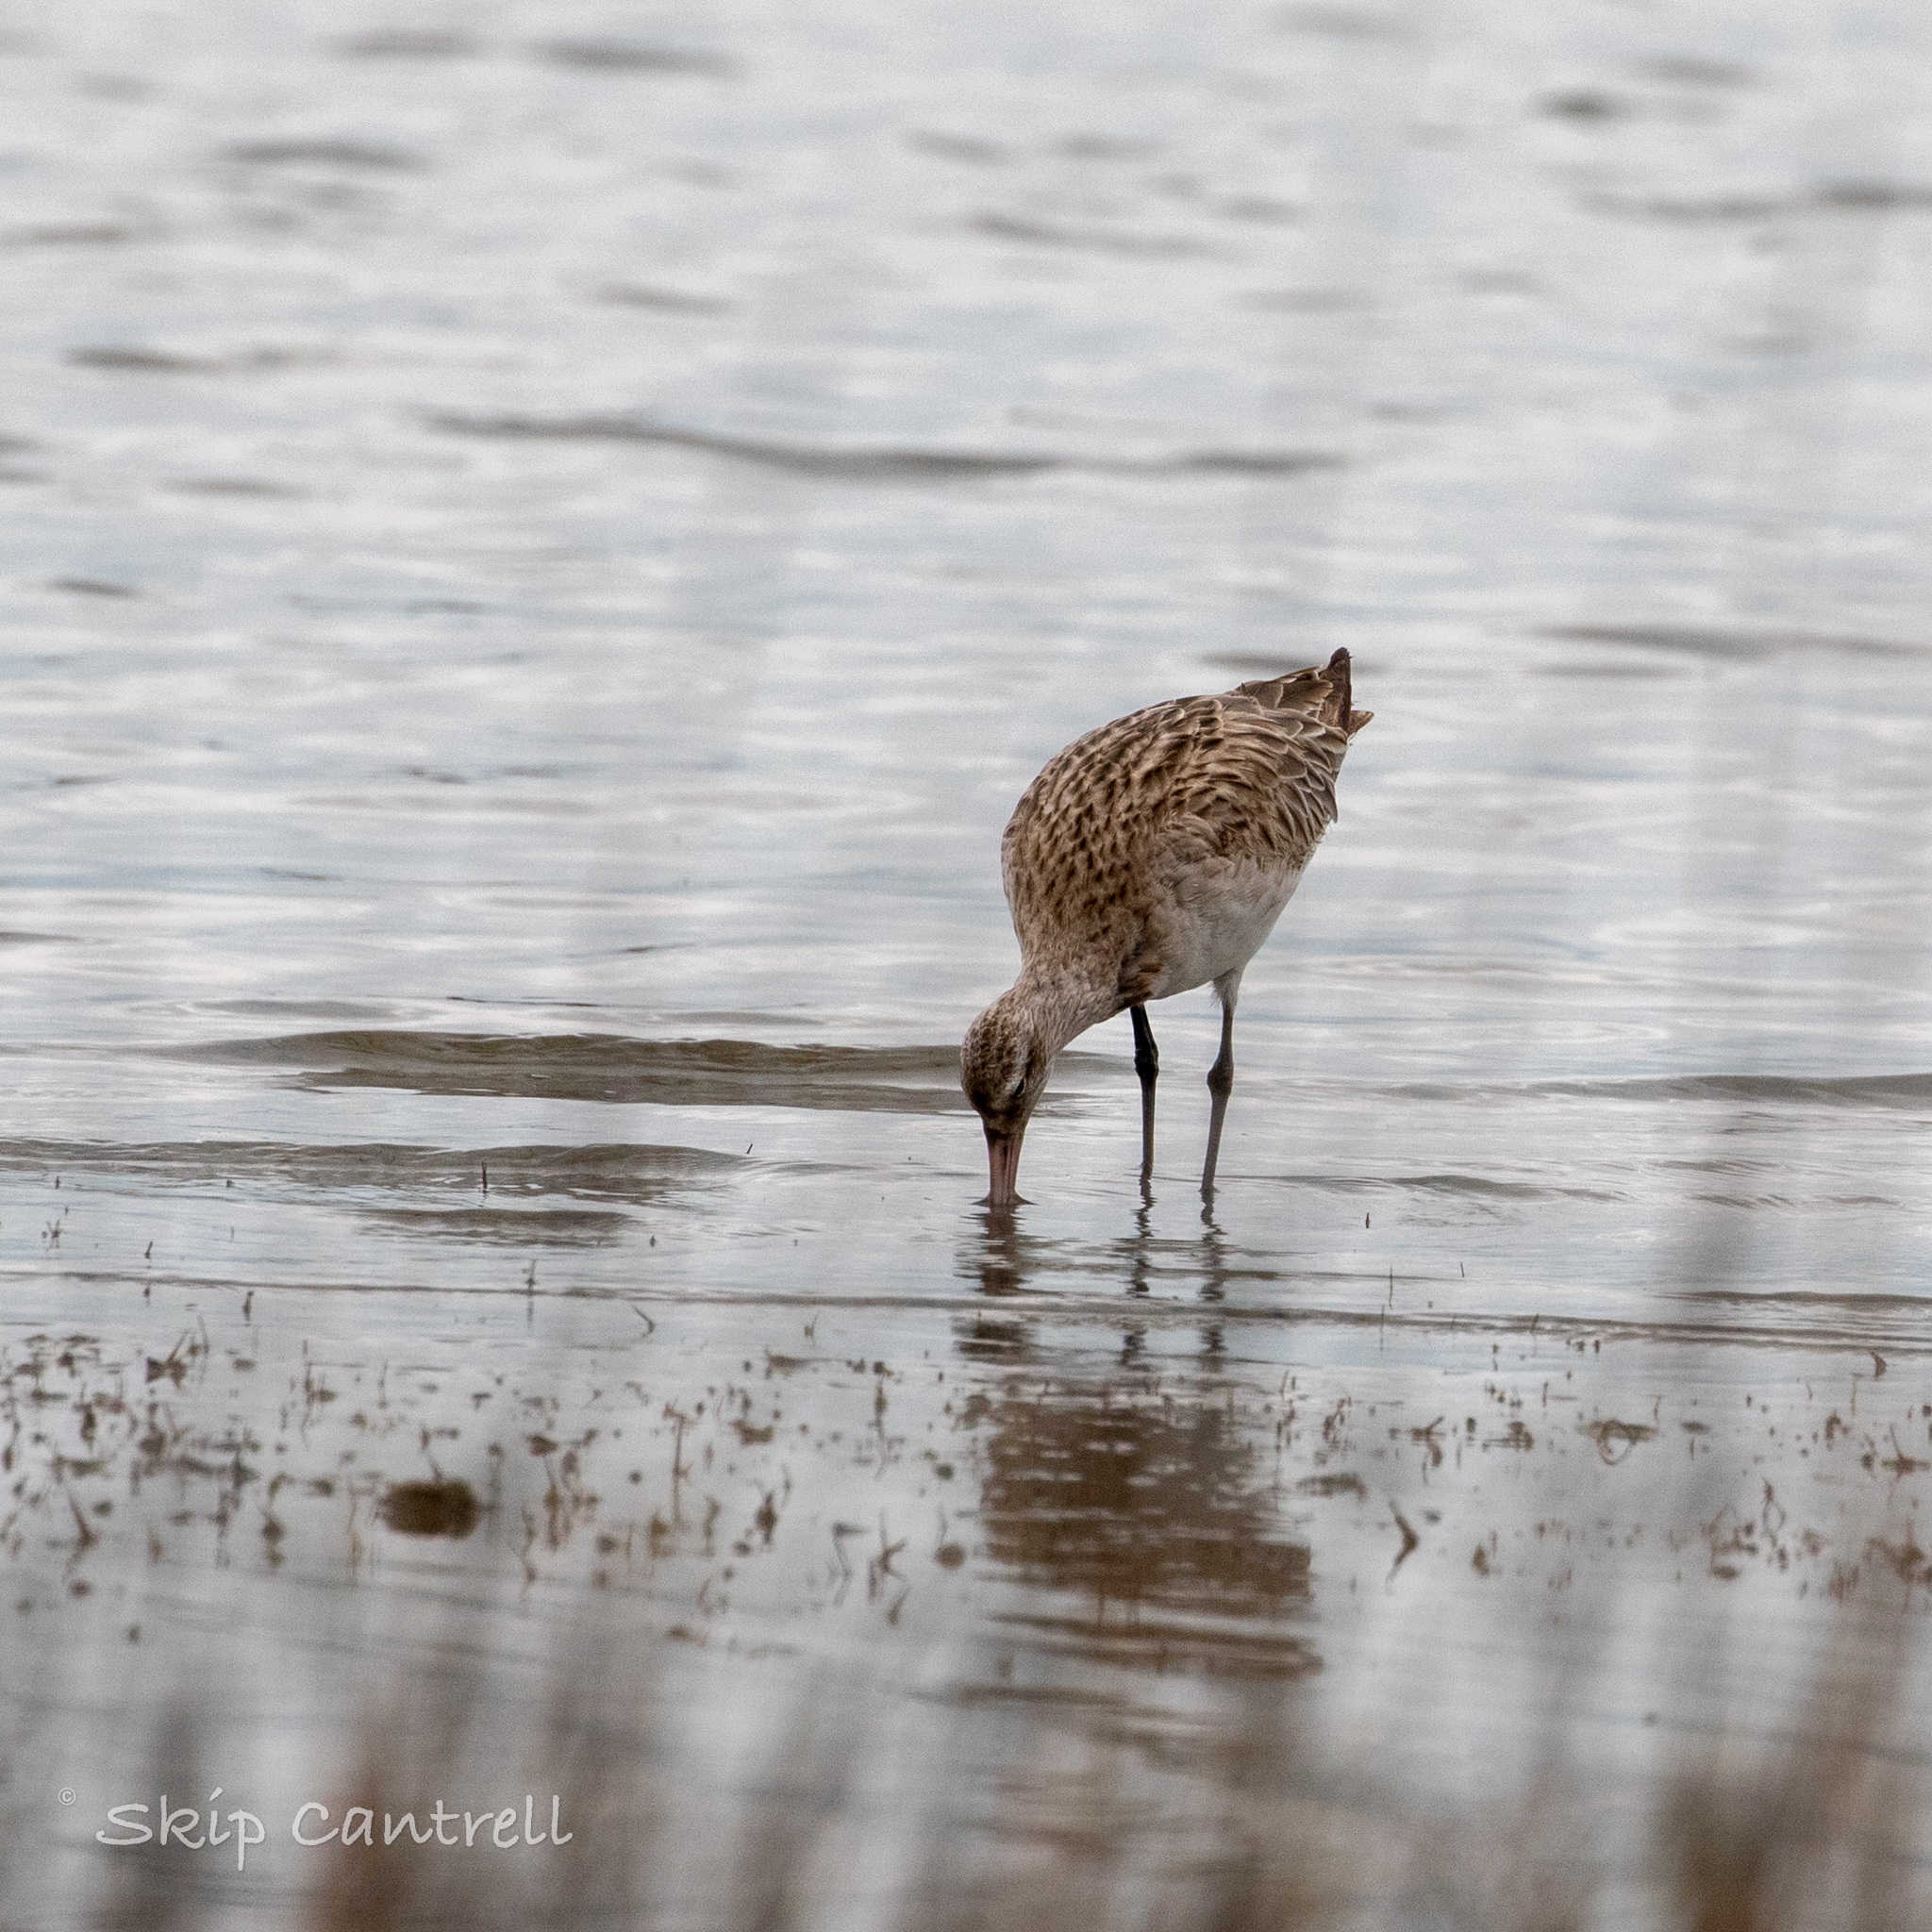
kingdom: Animalia
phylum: Chordata
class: Aves
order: Charadriiformes
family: Scolopacidae
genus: Limosa
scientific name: Limosa lapponica
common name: Bar-tailed godwit
